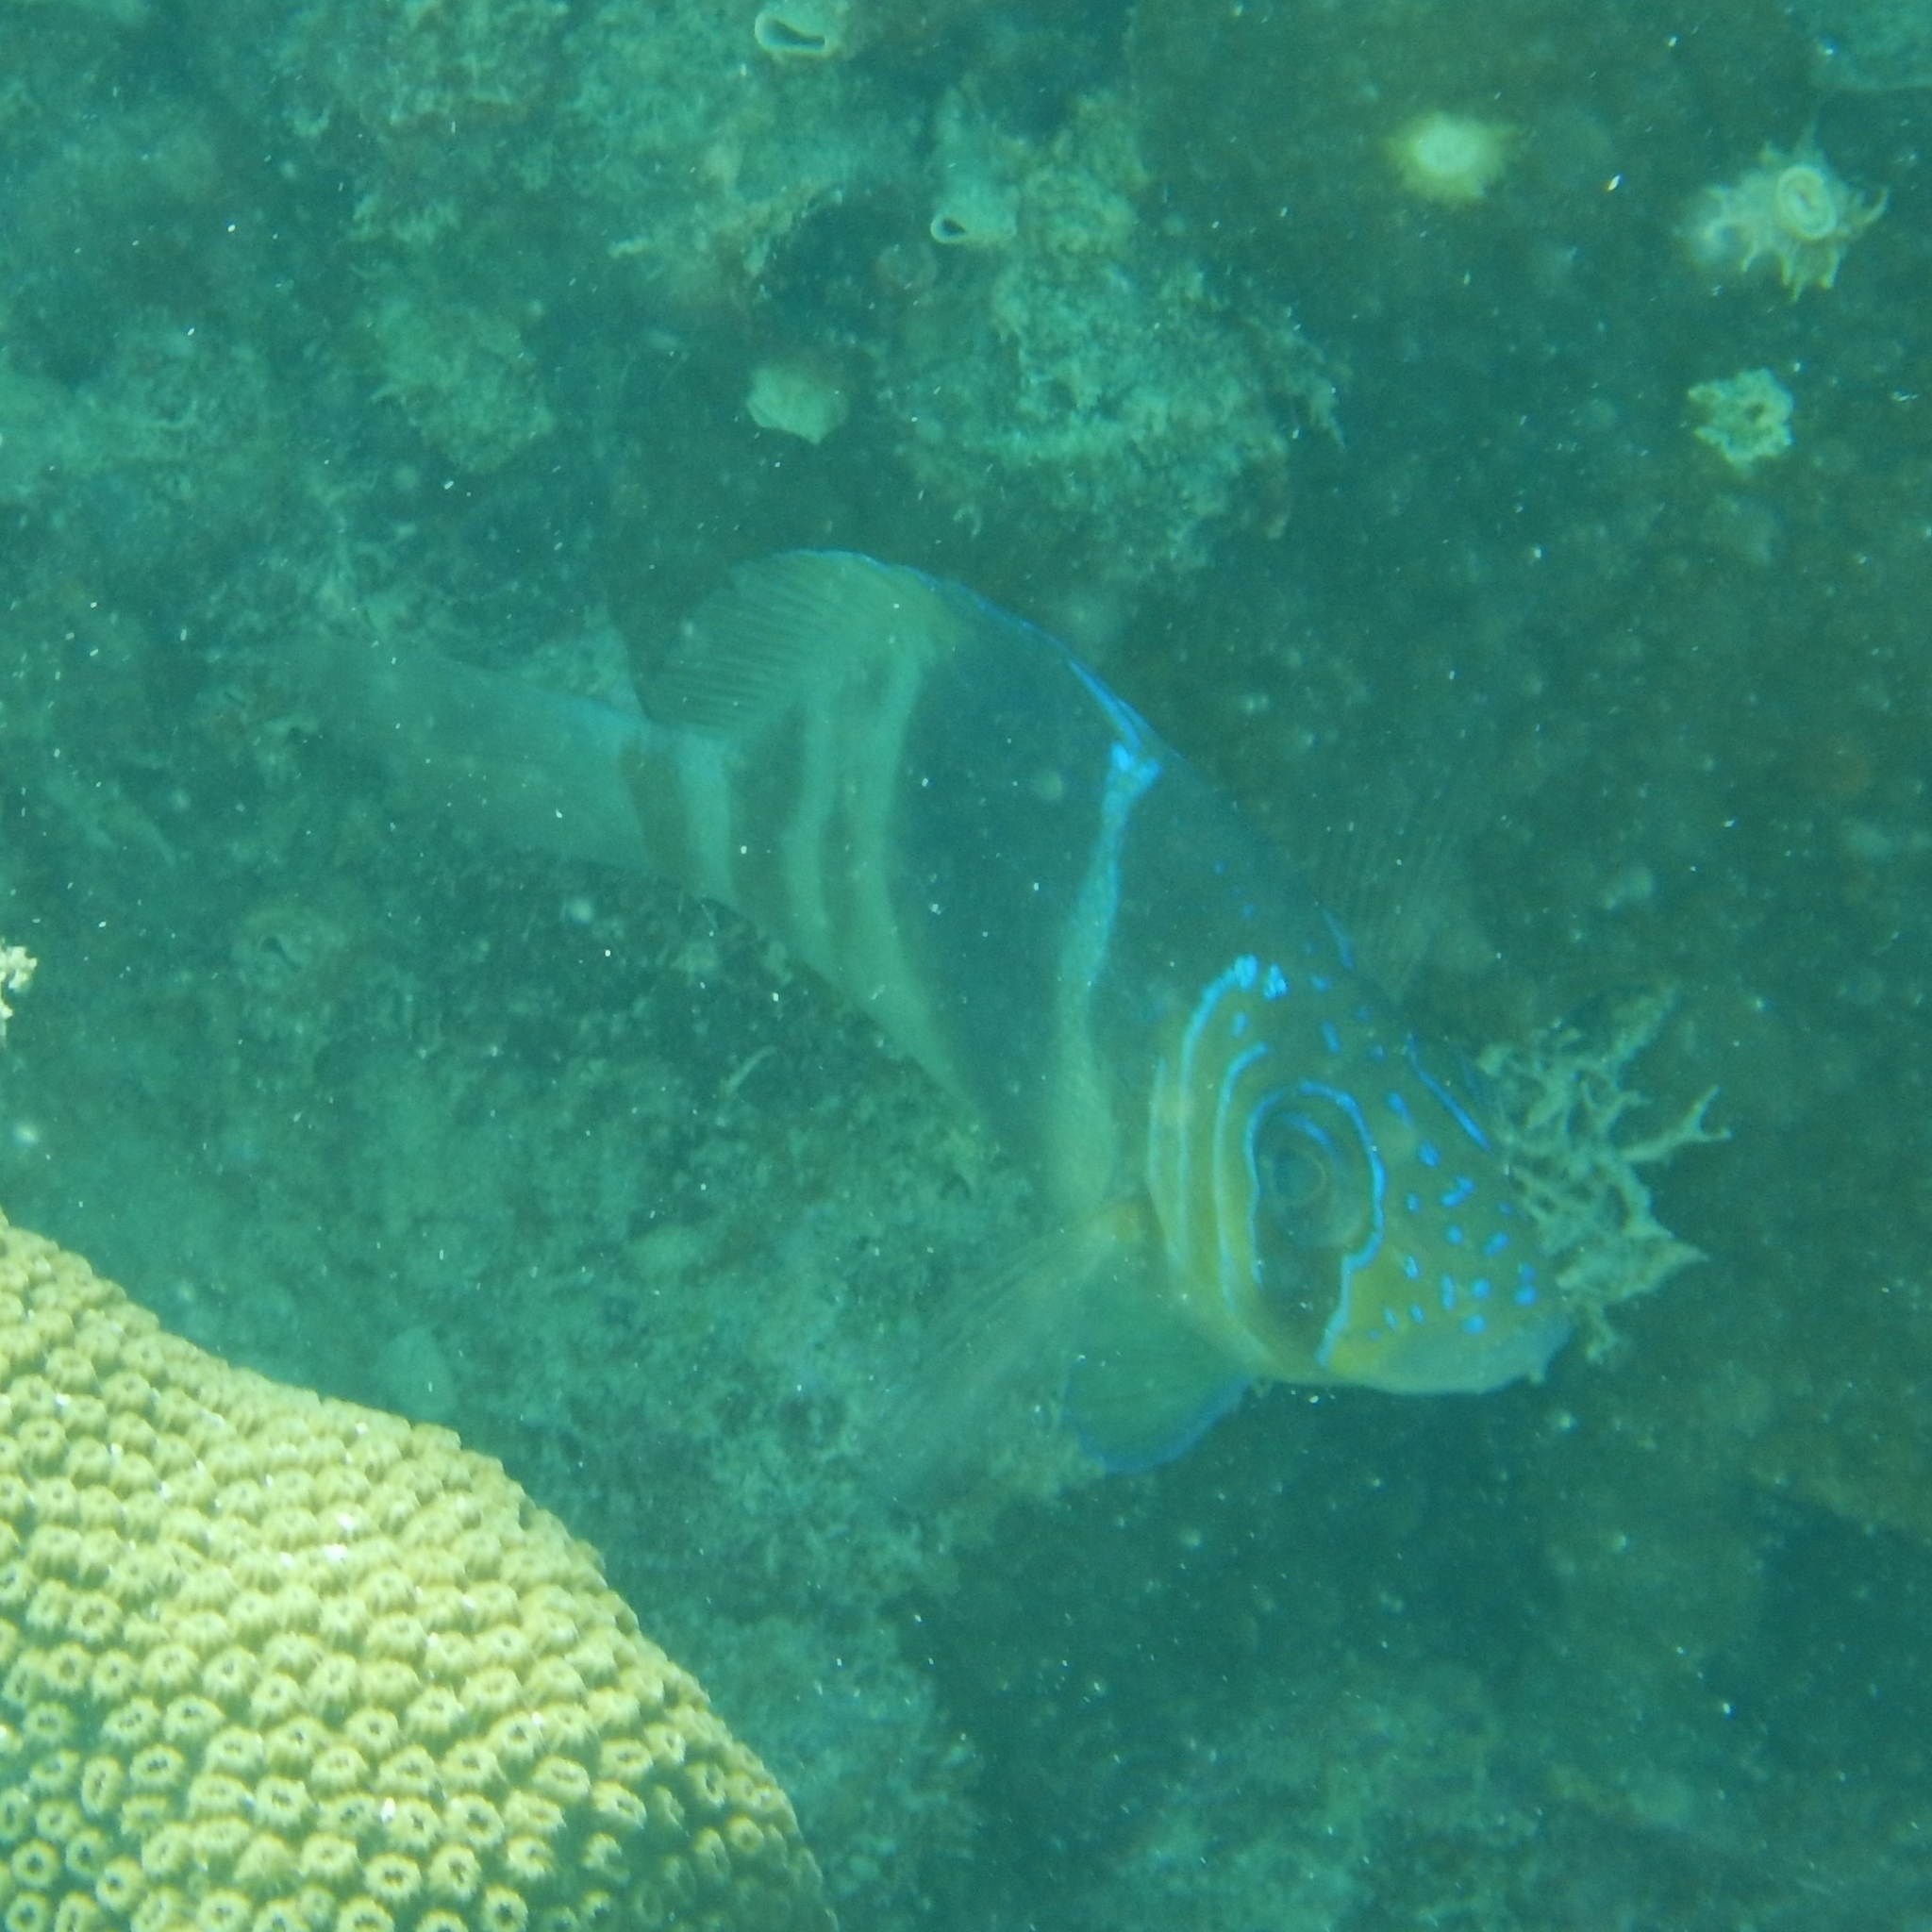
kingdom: Animalia
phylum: Chordata
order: Perciformes
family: Serranidae
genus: Hypoplectrus
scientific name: Hypoplectrus puella
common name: Barred hamlet
